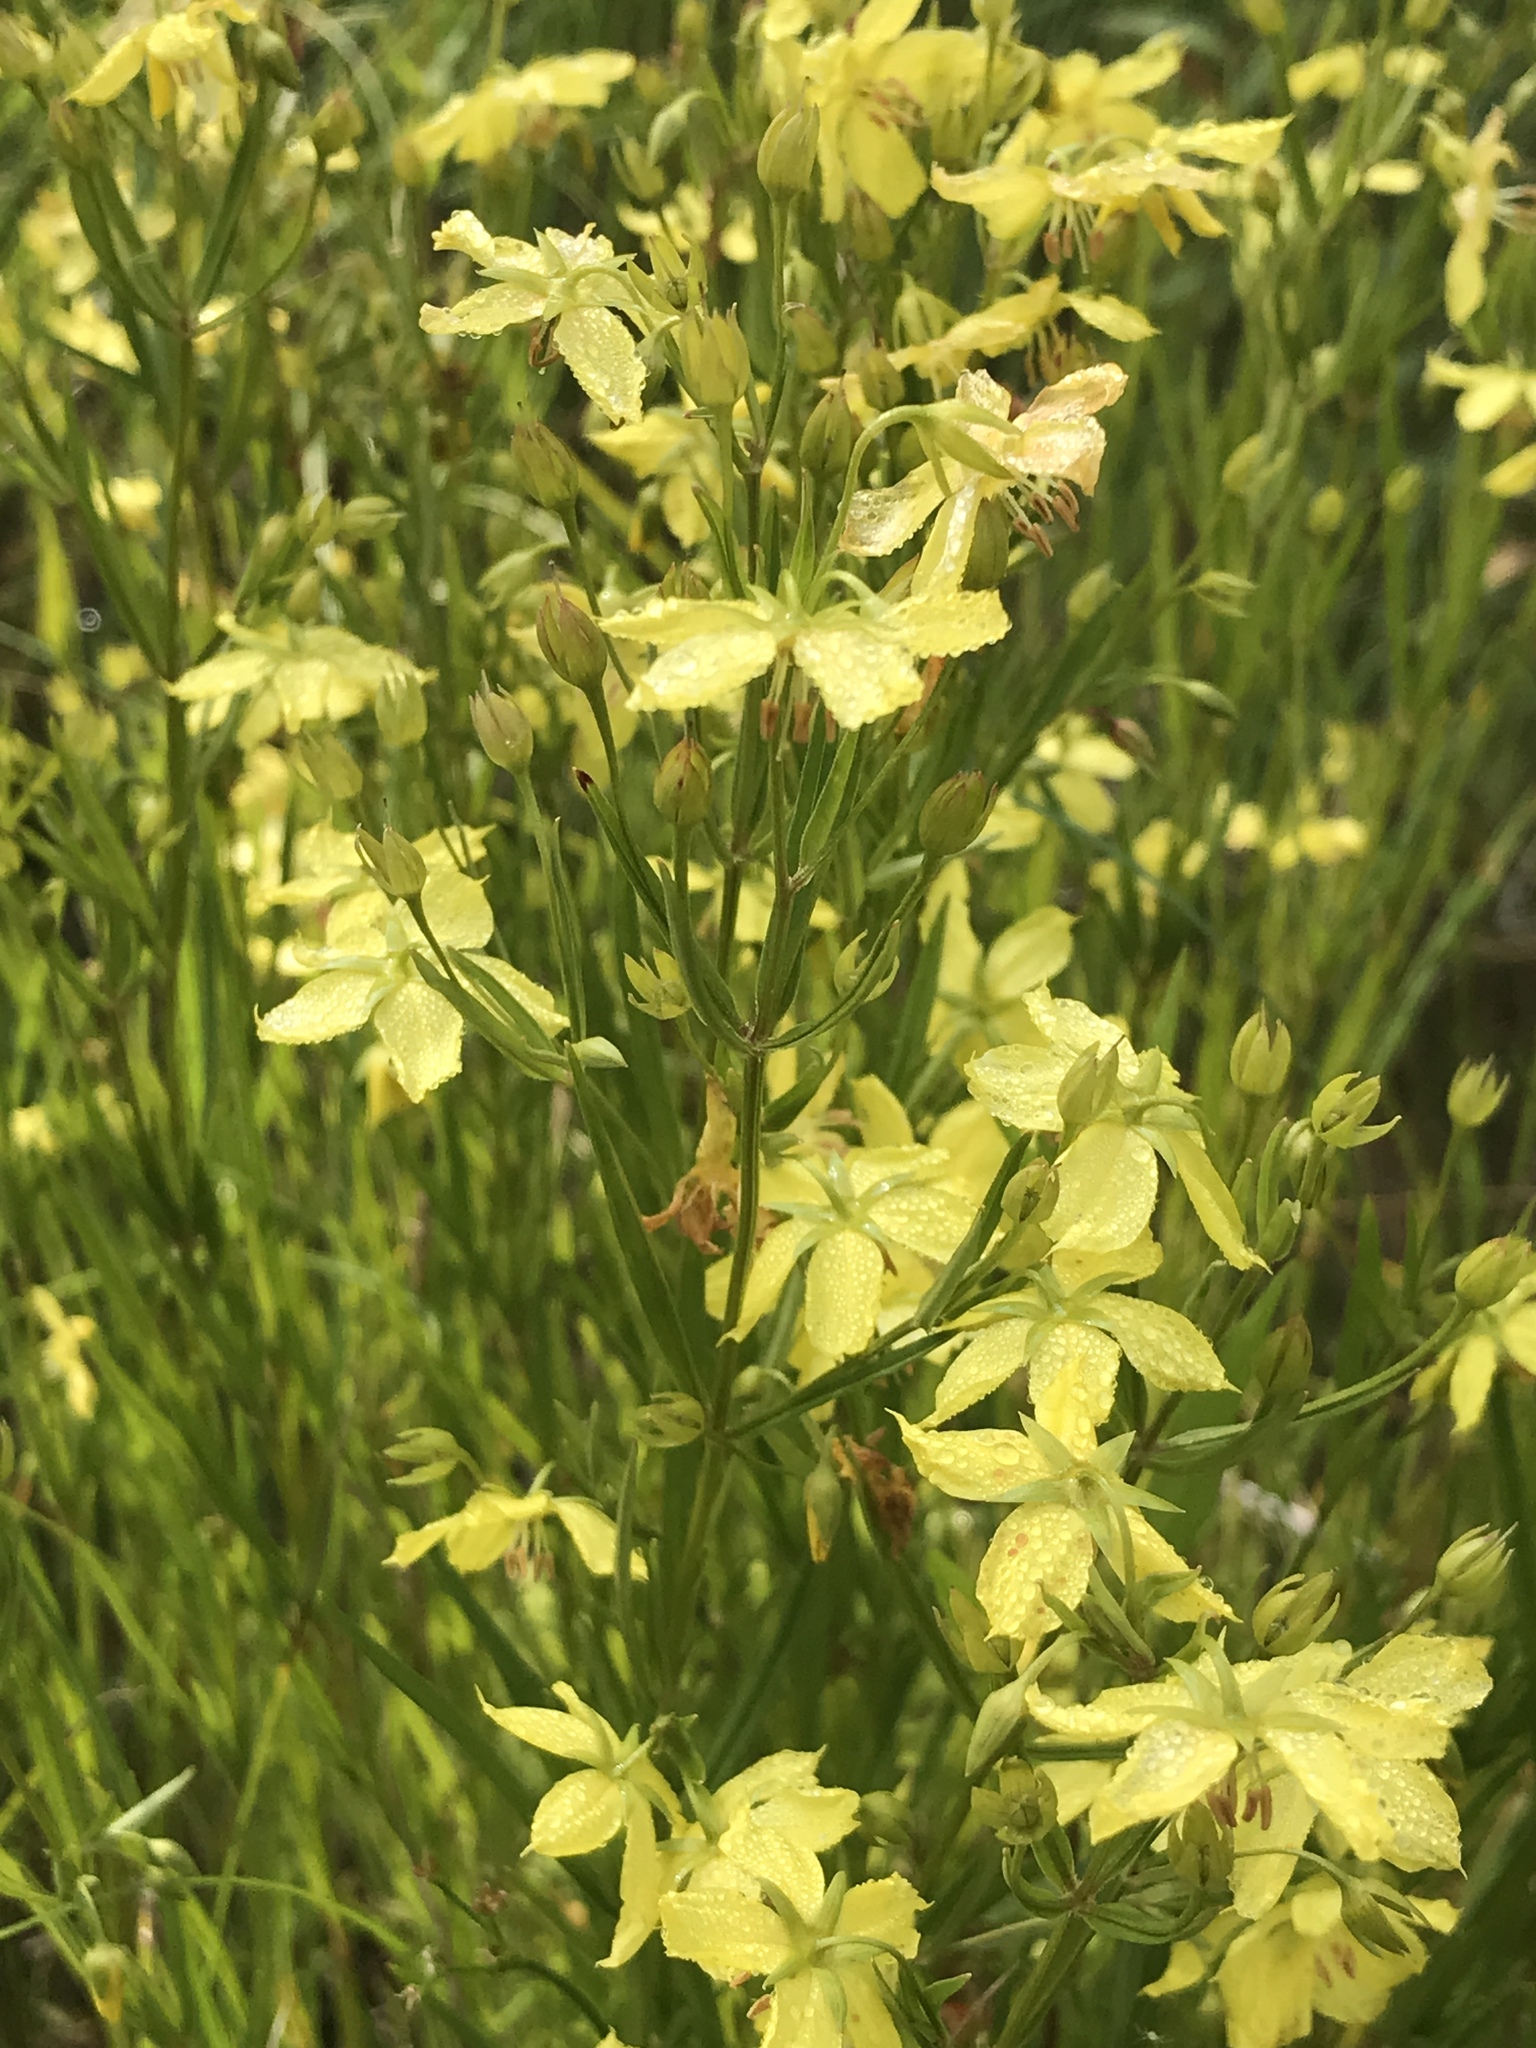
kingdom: Plantae
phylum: Tracheophyta
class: Magnoliopsida
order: Ericales
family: Primulaceae
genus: Lysimachia
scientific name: Lysimachia quadriflora
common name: Four-flowered loosestrife
